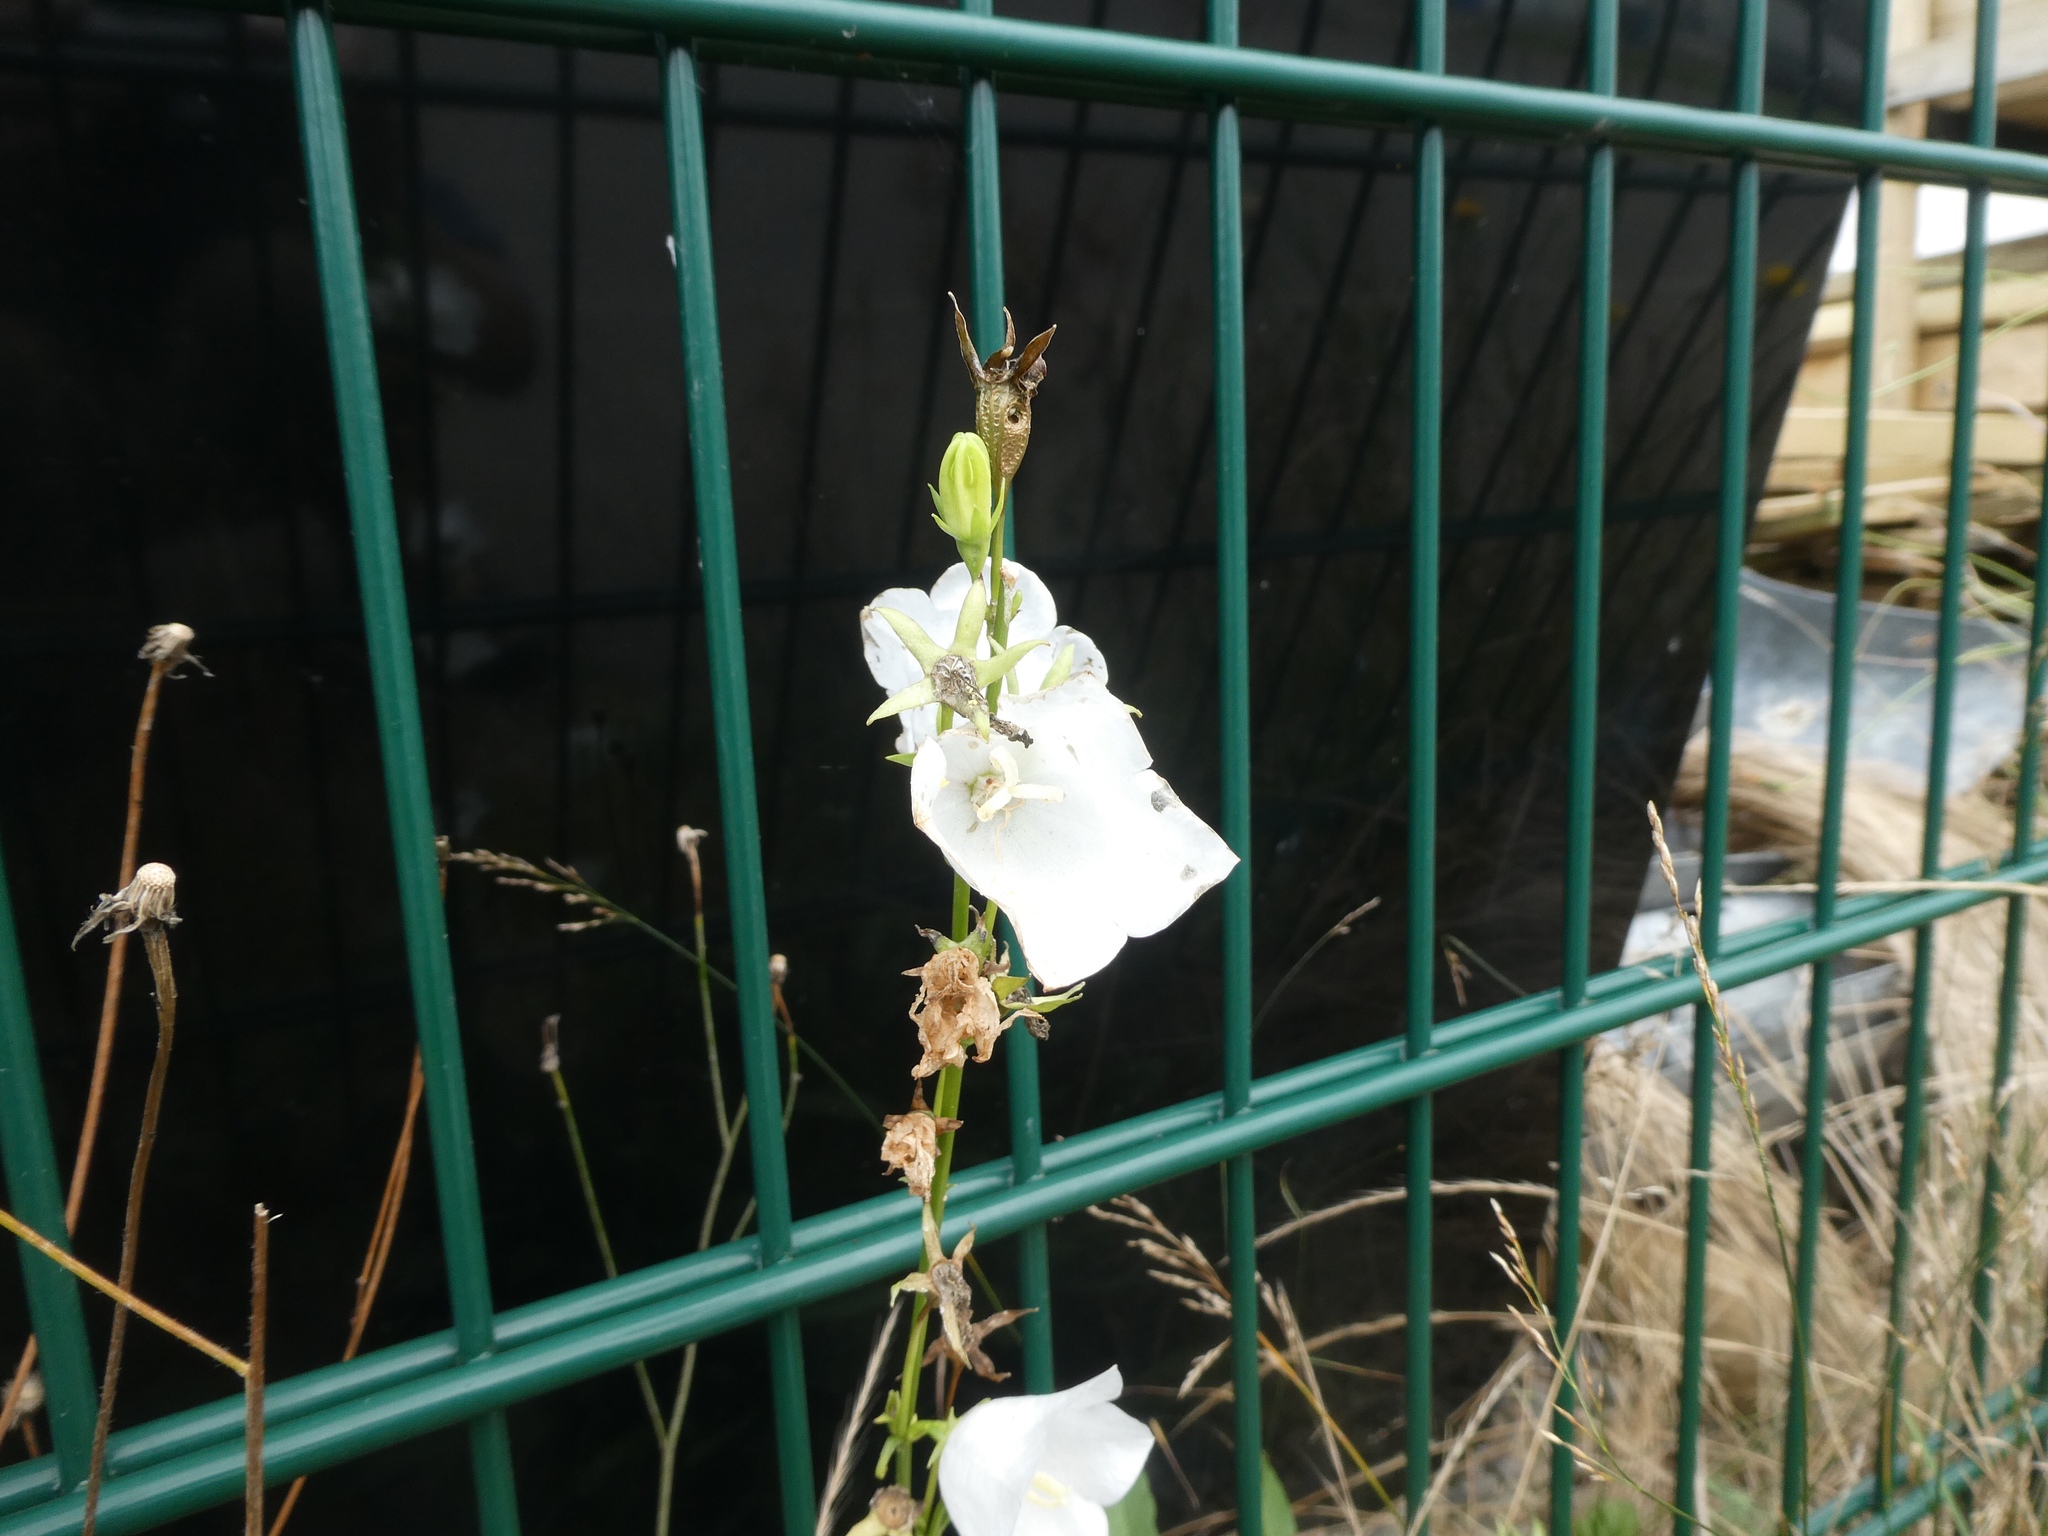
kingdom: Plantae
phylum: Tracheophyta
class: Magnoliopsida
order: Asterales
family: Campanulaceae
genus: Campanula
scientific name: Campanula persicifolia
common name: Peach-leaved bellflower
